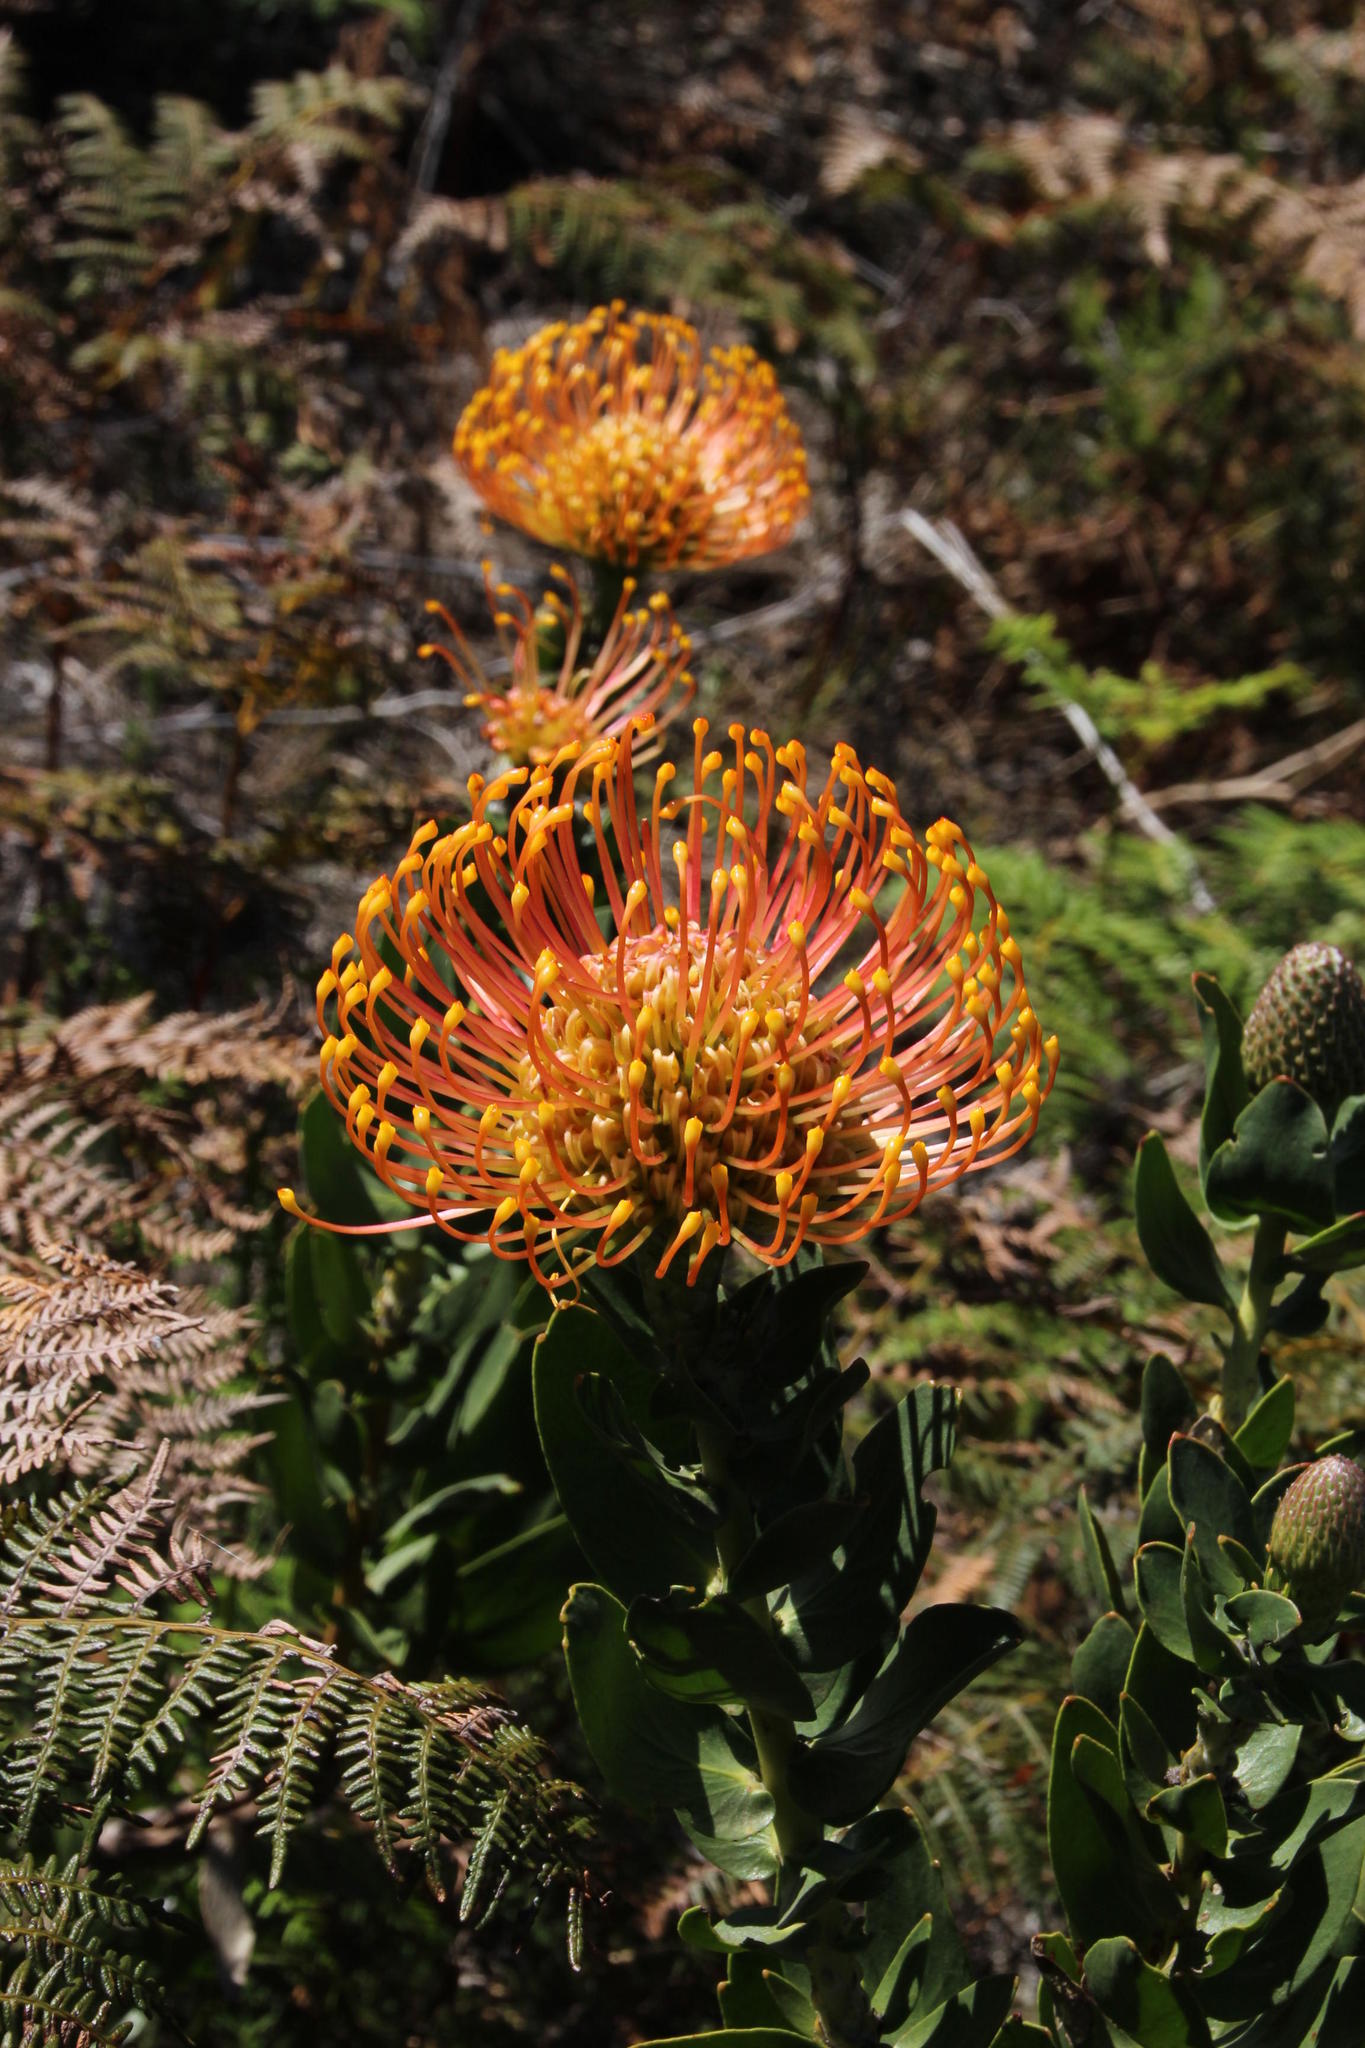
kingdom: Plantae
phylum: Tracheophyta
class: Magnoliopsida
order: Proteales
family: Proteaceae
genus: Leucospermum
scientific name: Leucospermum cordifolium
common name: Red pincushion-protea
